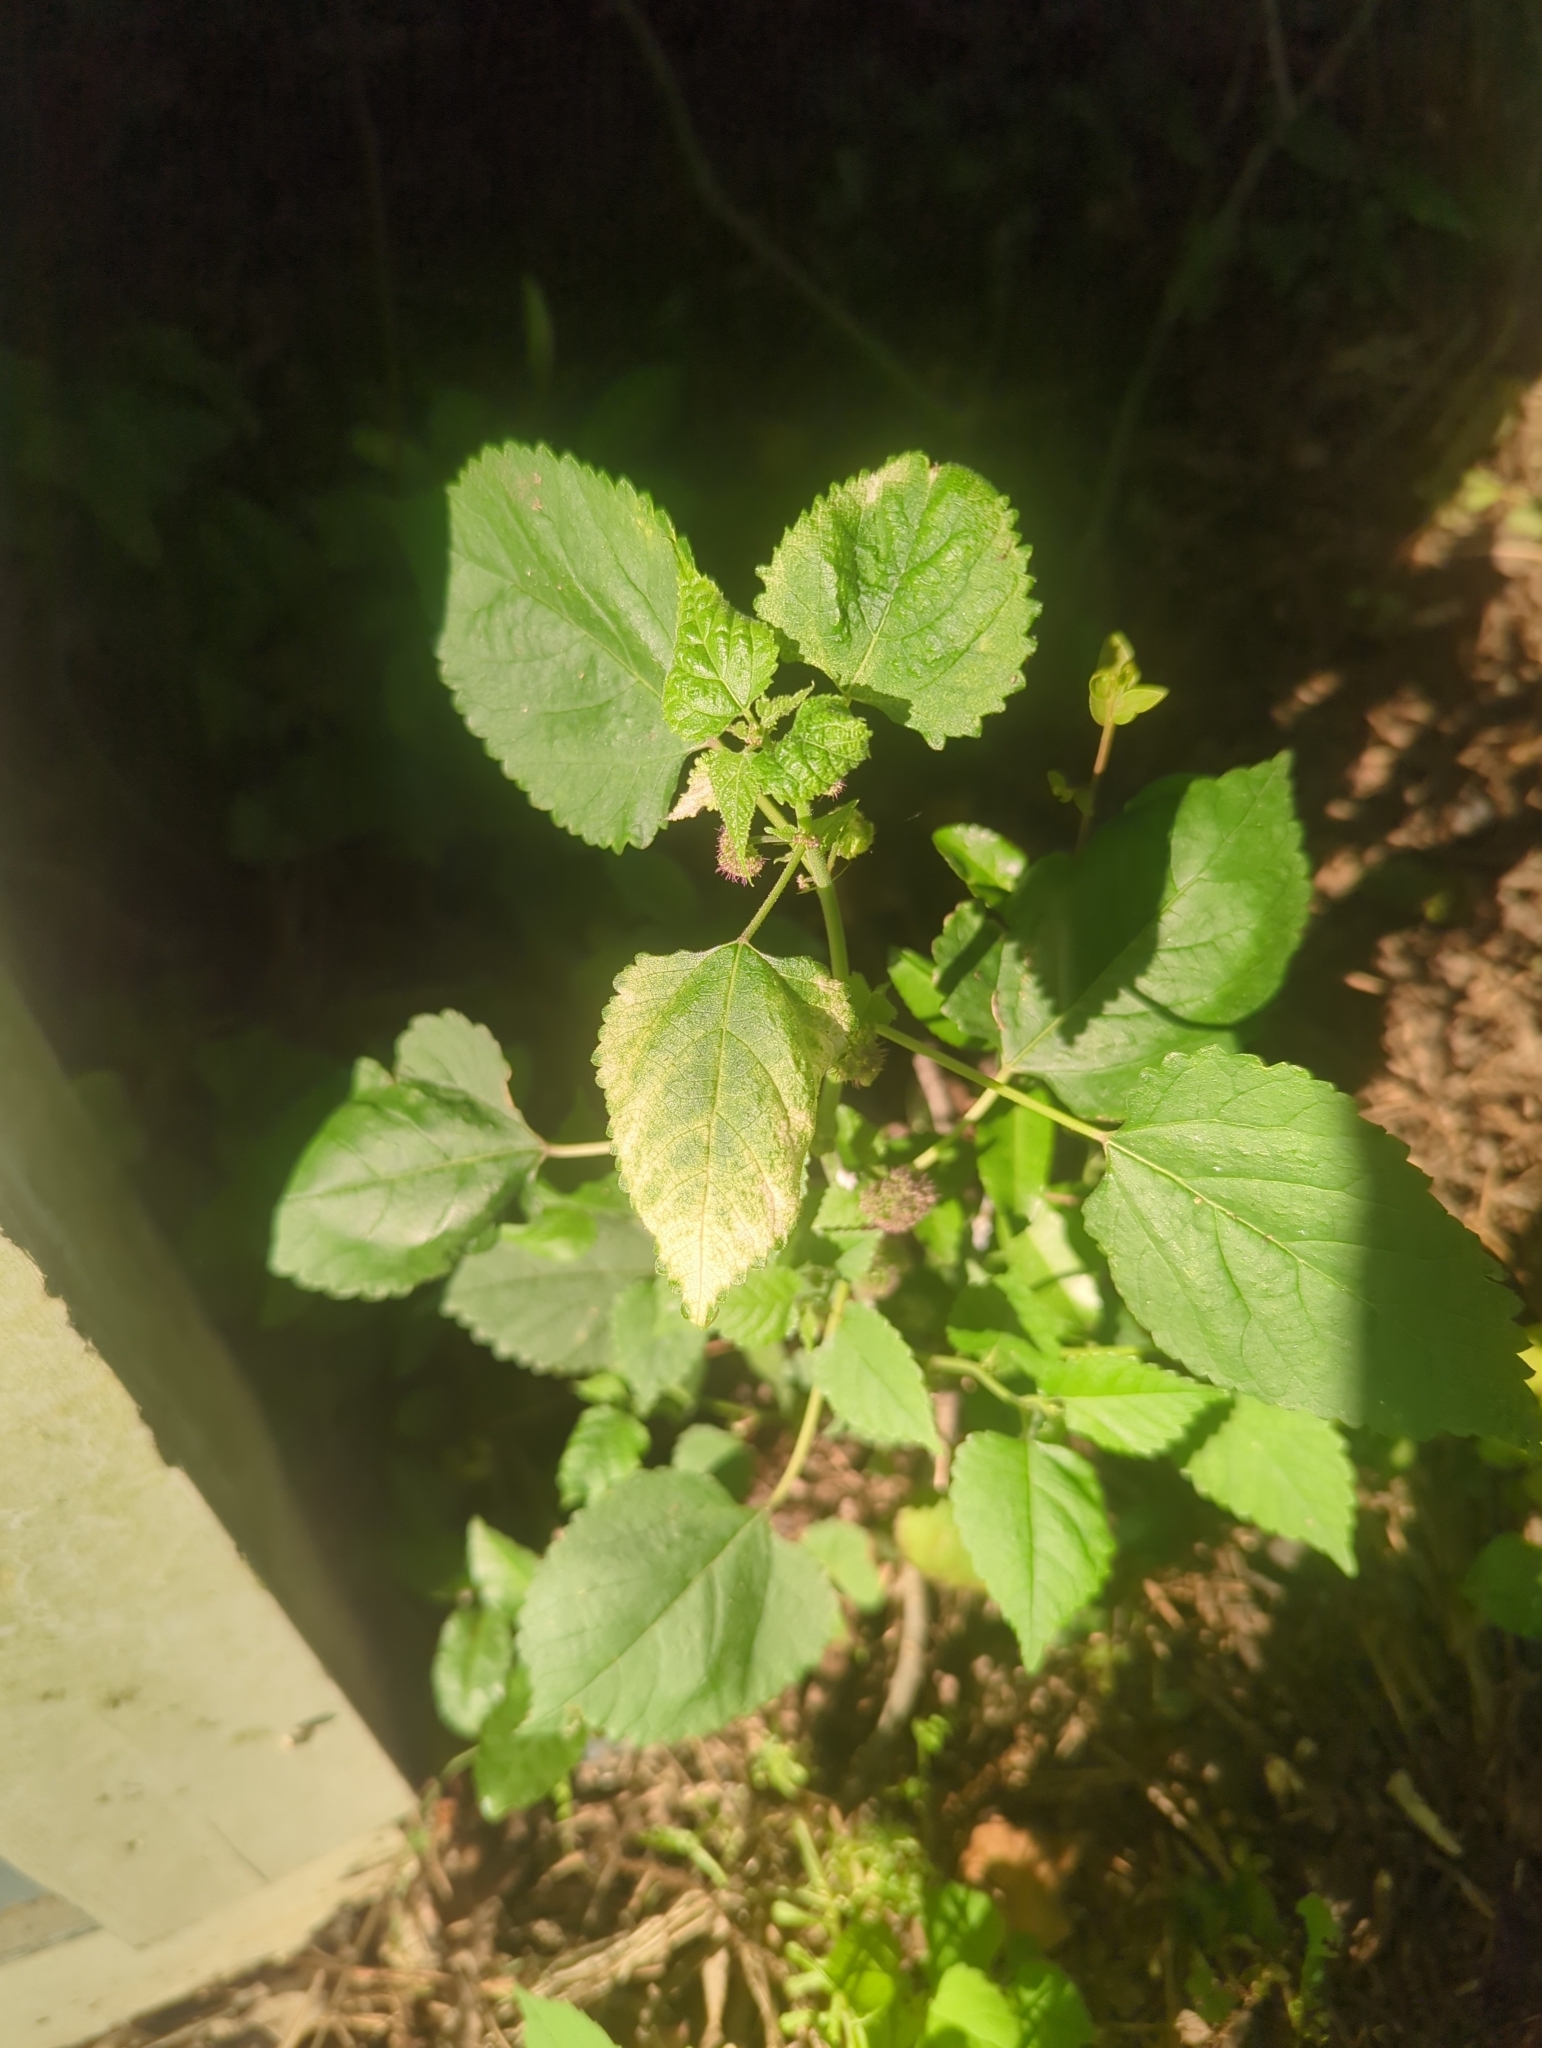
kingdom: Plantae
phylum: Tracheophyta
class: Magnoliopsida
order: Rosales
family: Moraceae
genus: Fatoua
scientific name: Fatoua villosa
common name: Hairy crabweed
